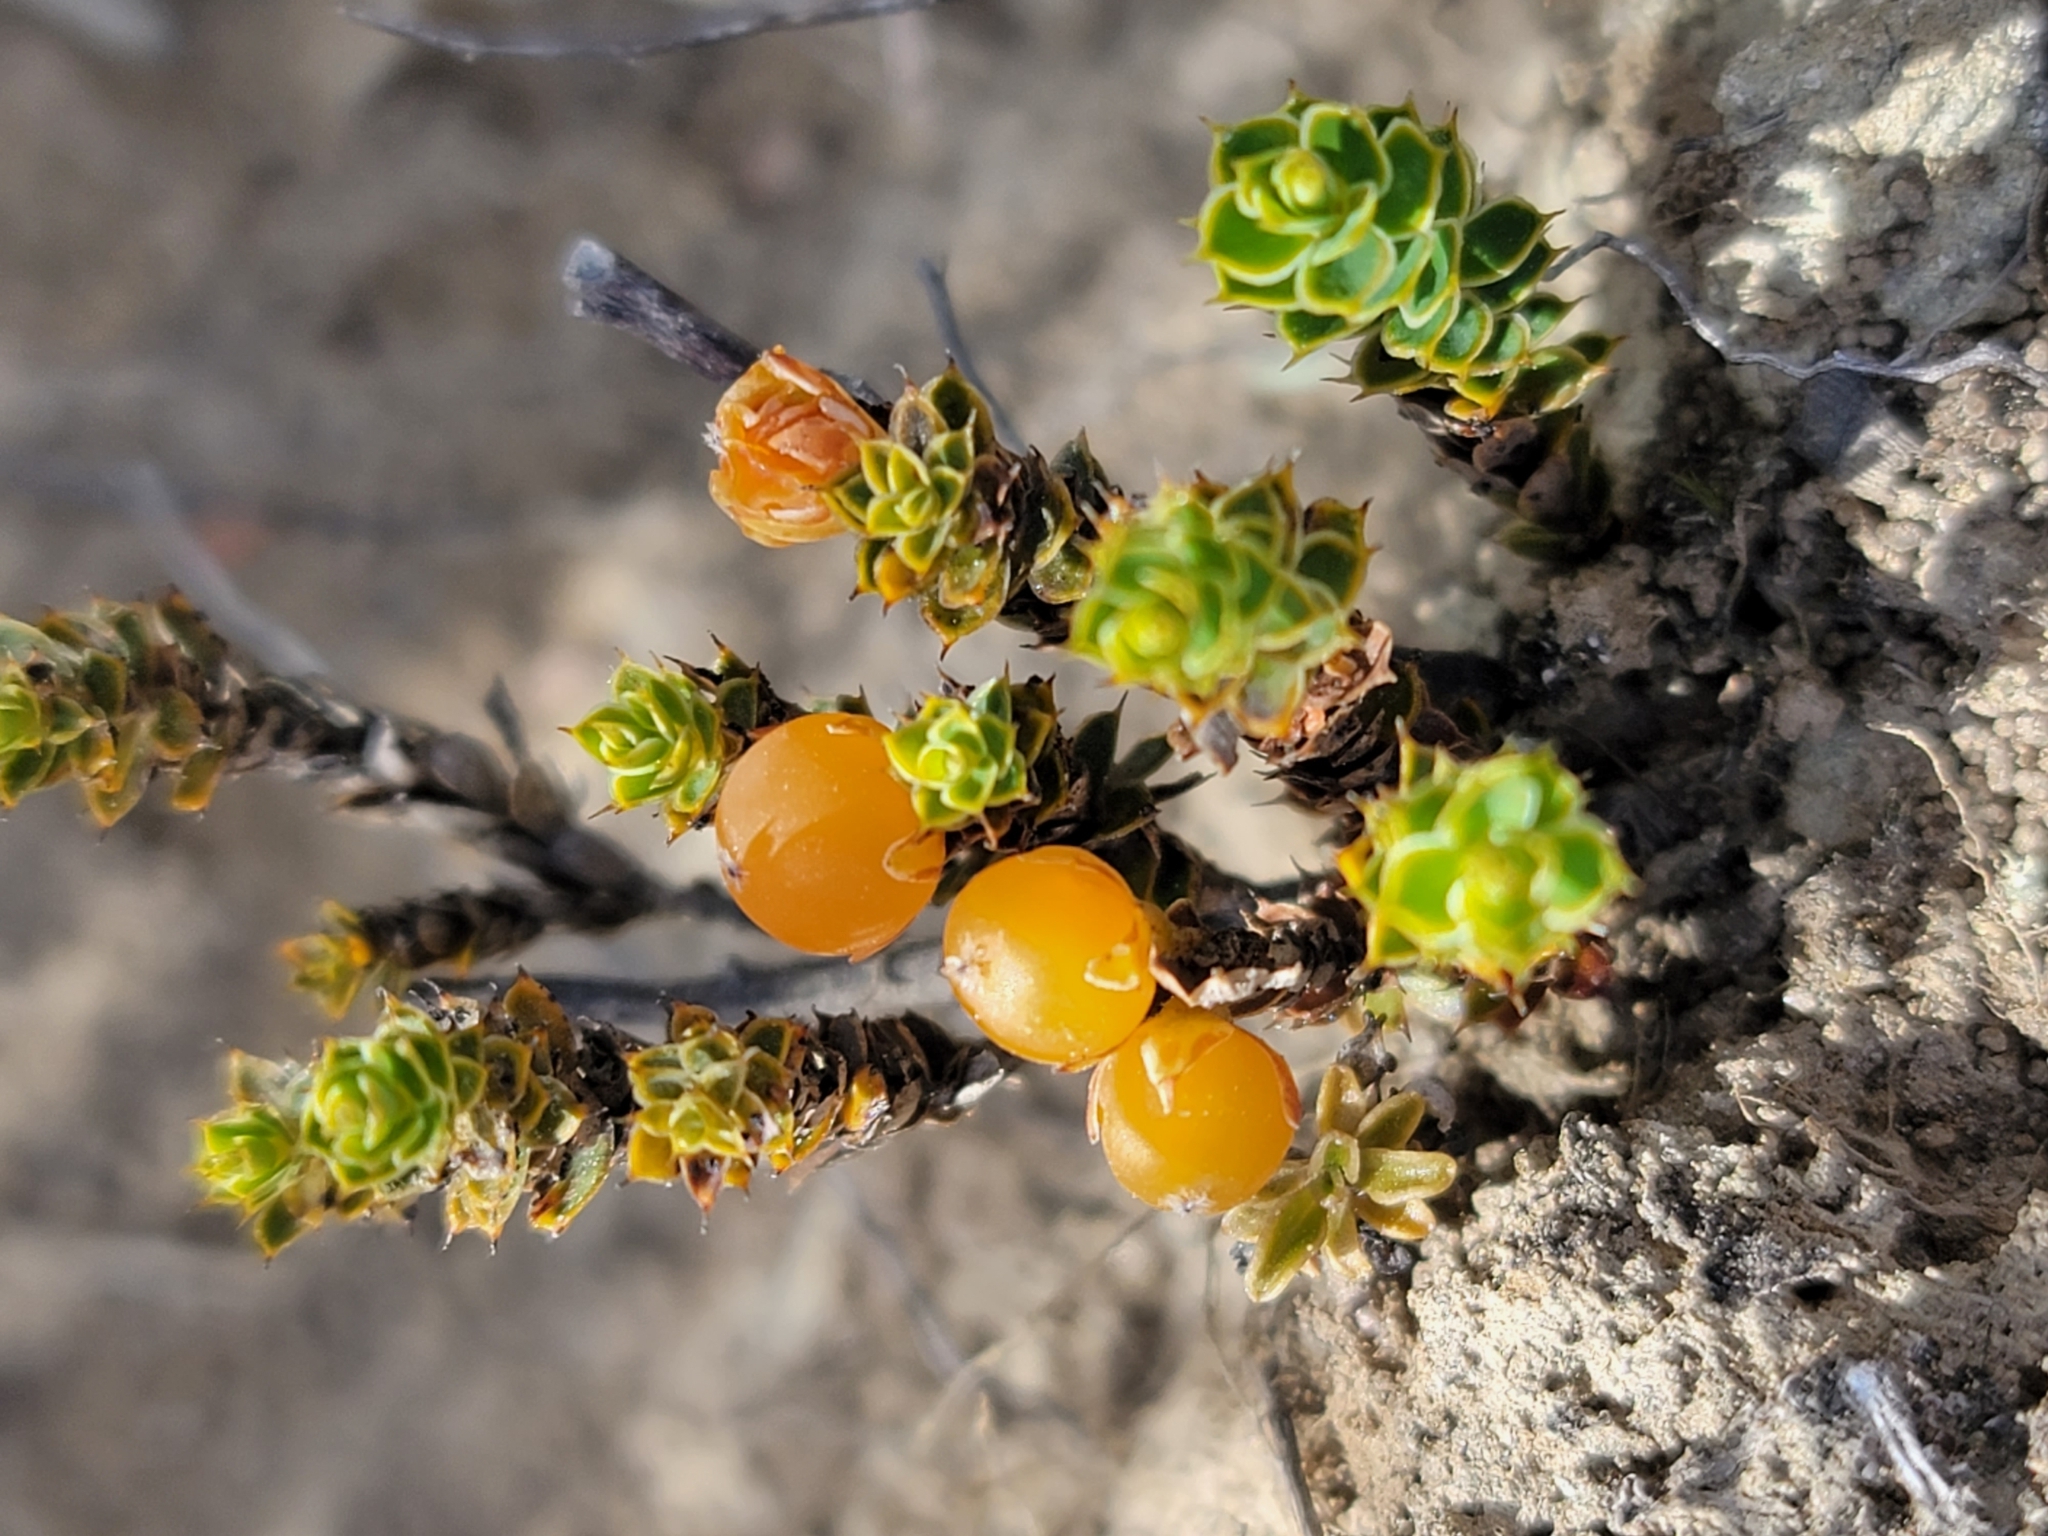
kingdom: Plantae
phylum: Tracheophyta
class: Magnoliopsida
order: Ericales
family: Ericaceae
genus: Styphelia
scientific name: Styphelia nesophila
